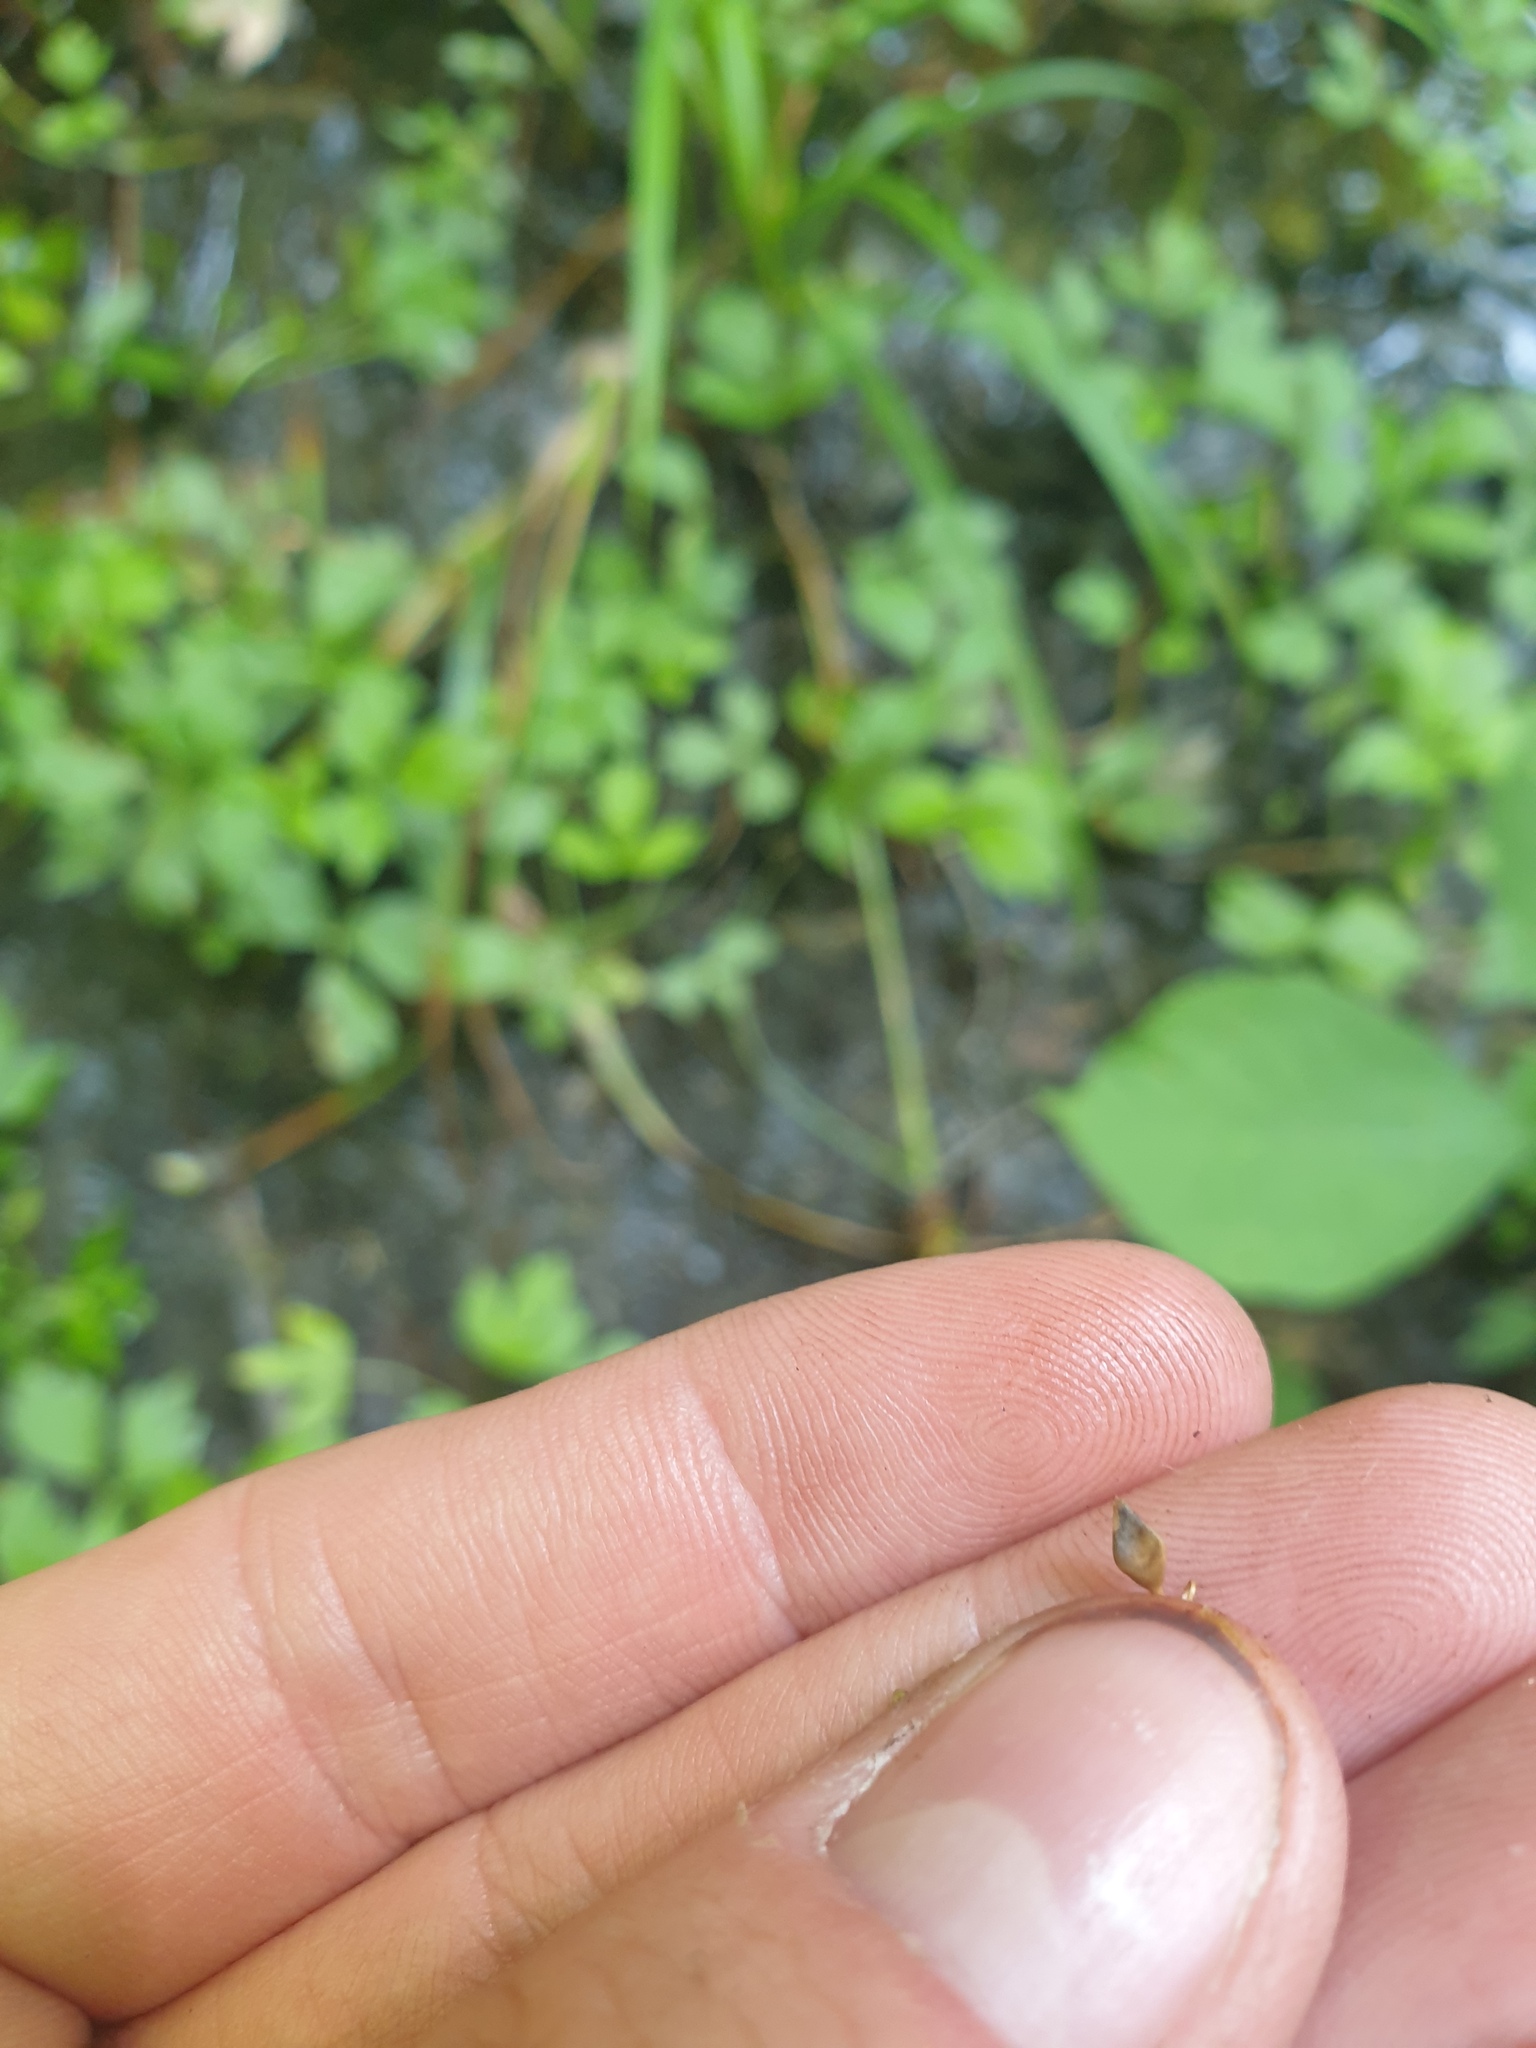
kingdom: Plantae
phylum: Tracheophyta
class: Liliopsida
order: Poales
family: Cyperaceae
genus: Carex
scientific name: Carex lupulina
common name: Hop sedge
